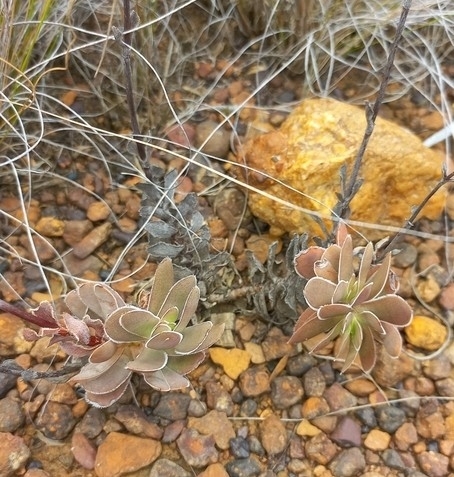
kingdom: Plantae
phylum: Tracheophyta
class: Magnoliopsida
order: Saxifragales
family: Crassulaceae
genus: Crassula
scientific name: Crassula ciliata
